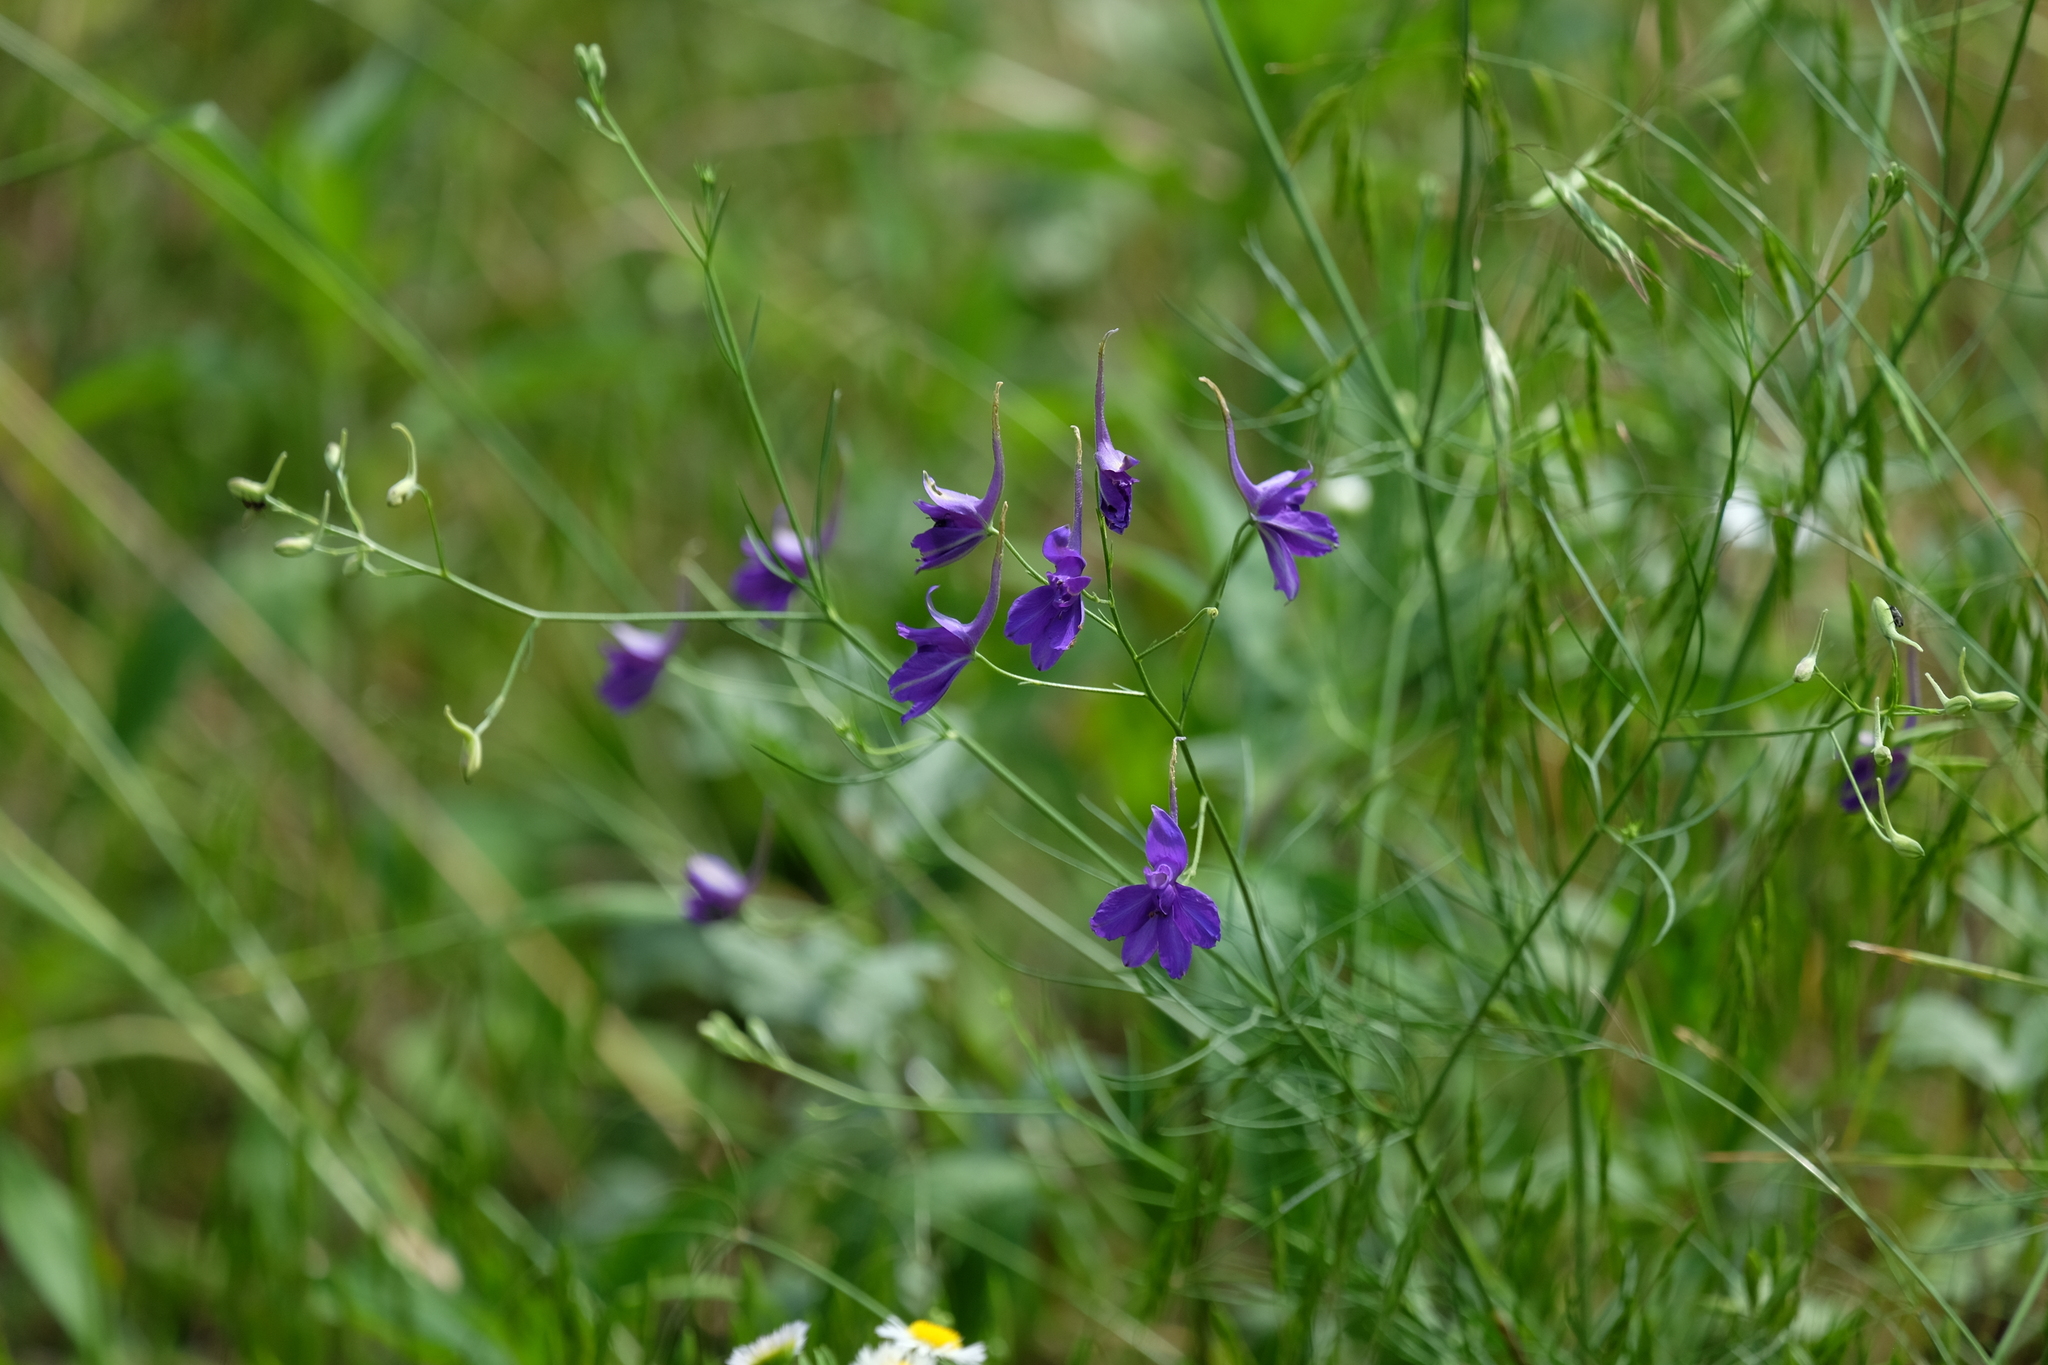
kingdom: Plantae
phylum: Tracheophyta
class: Magnoliopsida
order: Ranunculales
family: Ranunculaceae
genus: Delphinium
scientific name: Delphinium consolida
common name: Branching larkspur
